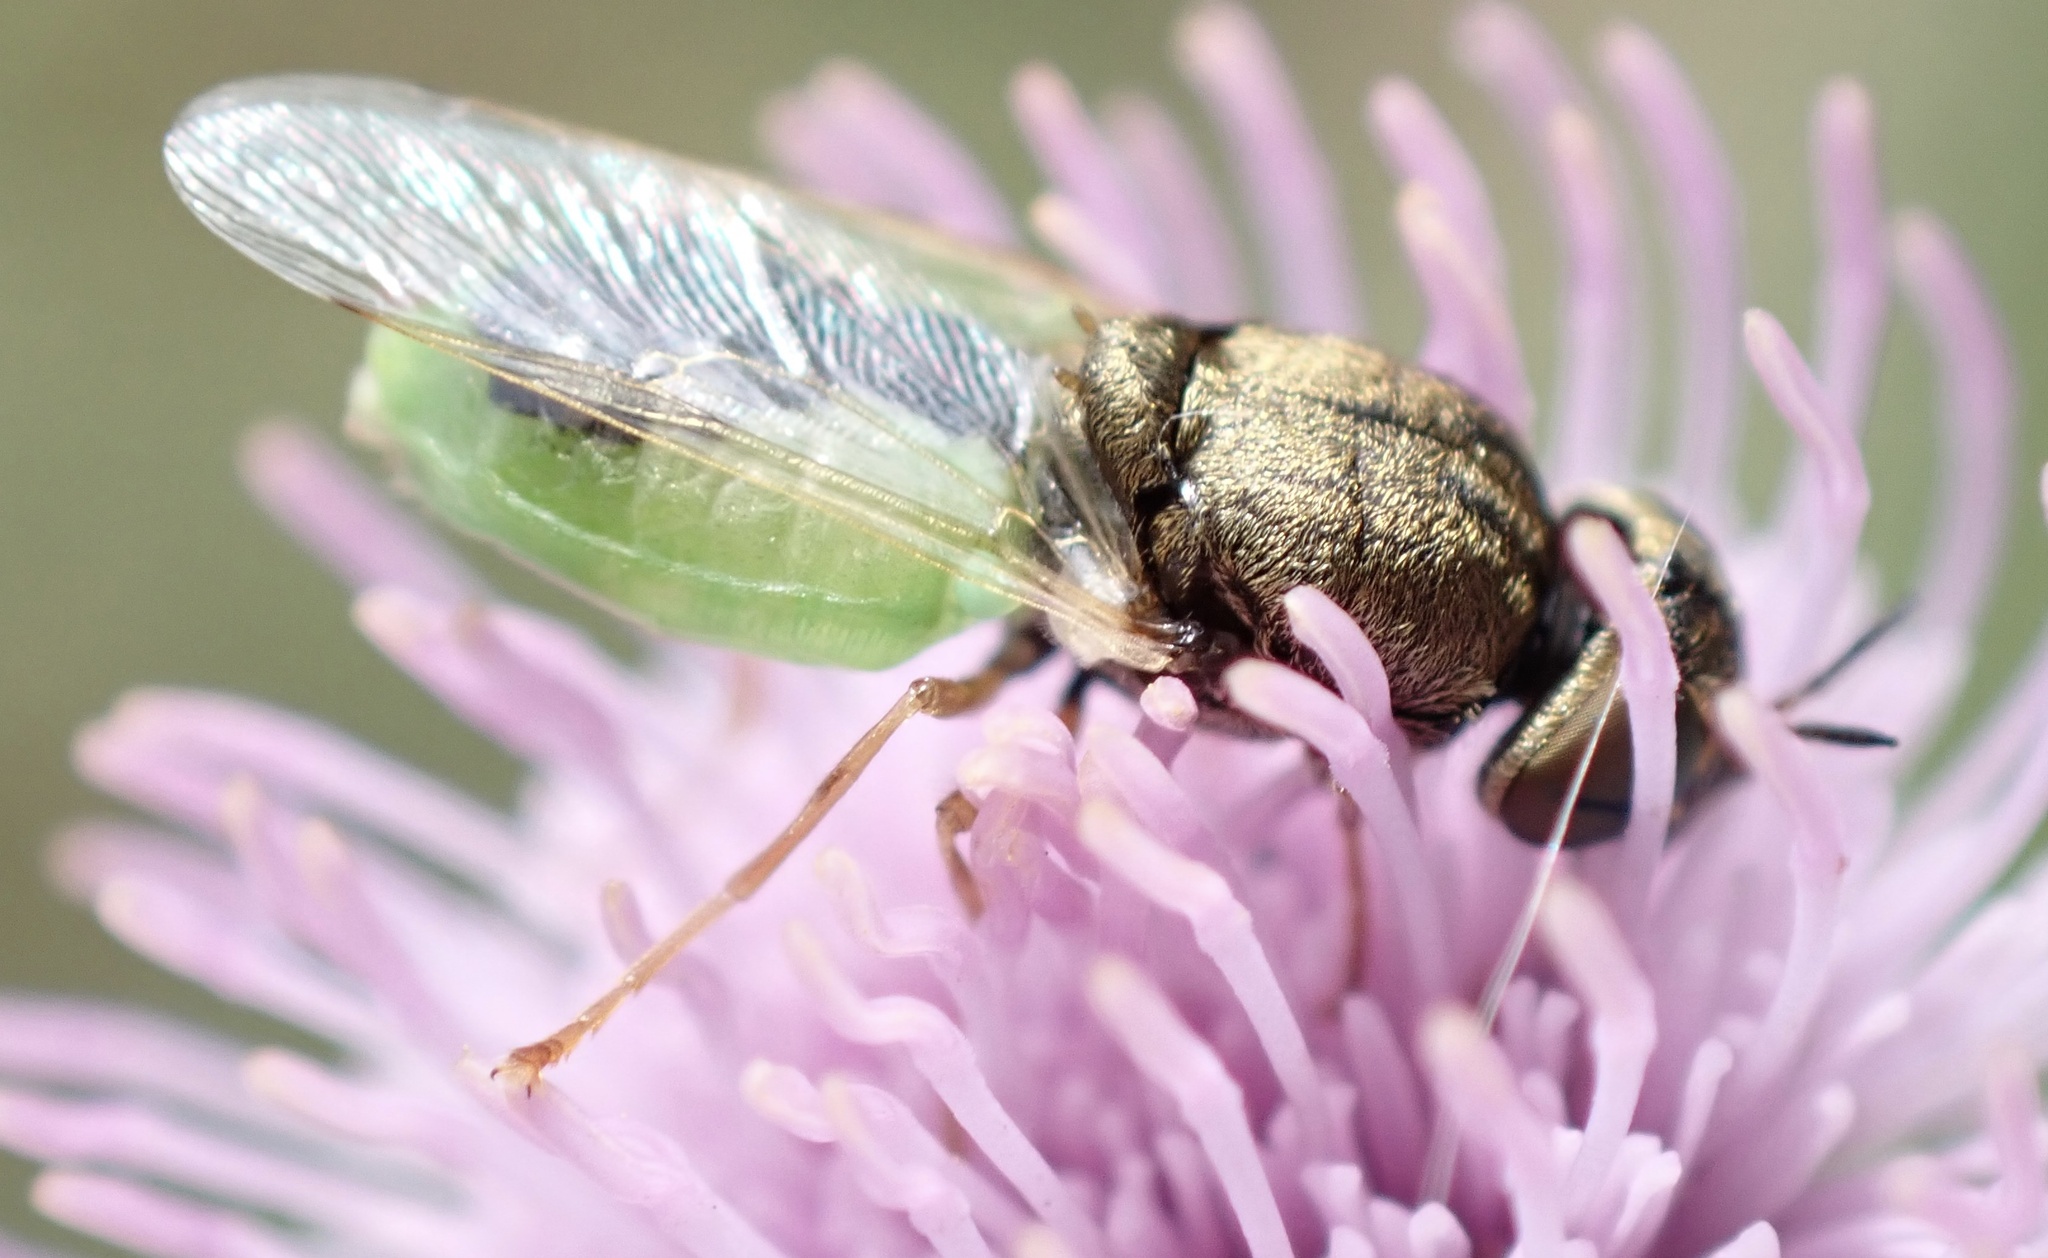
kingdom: Animalia
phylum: Arthropoda
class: Insecta
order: Diptera
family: Stratiomyidae
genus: Oplodontha
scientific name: Oplodontha viridula
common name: Common green colonel
